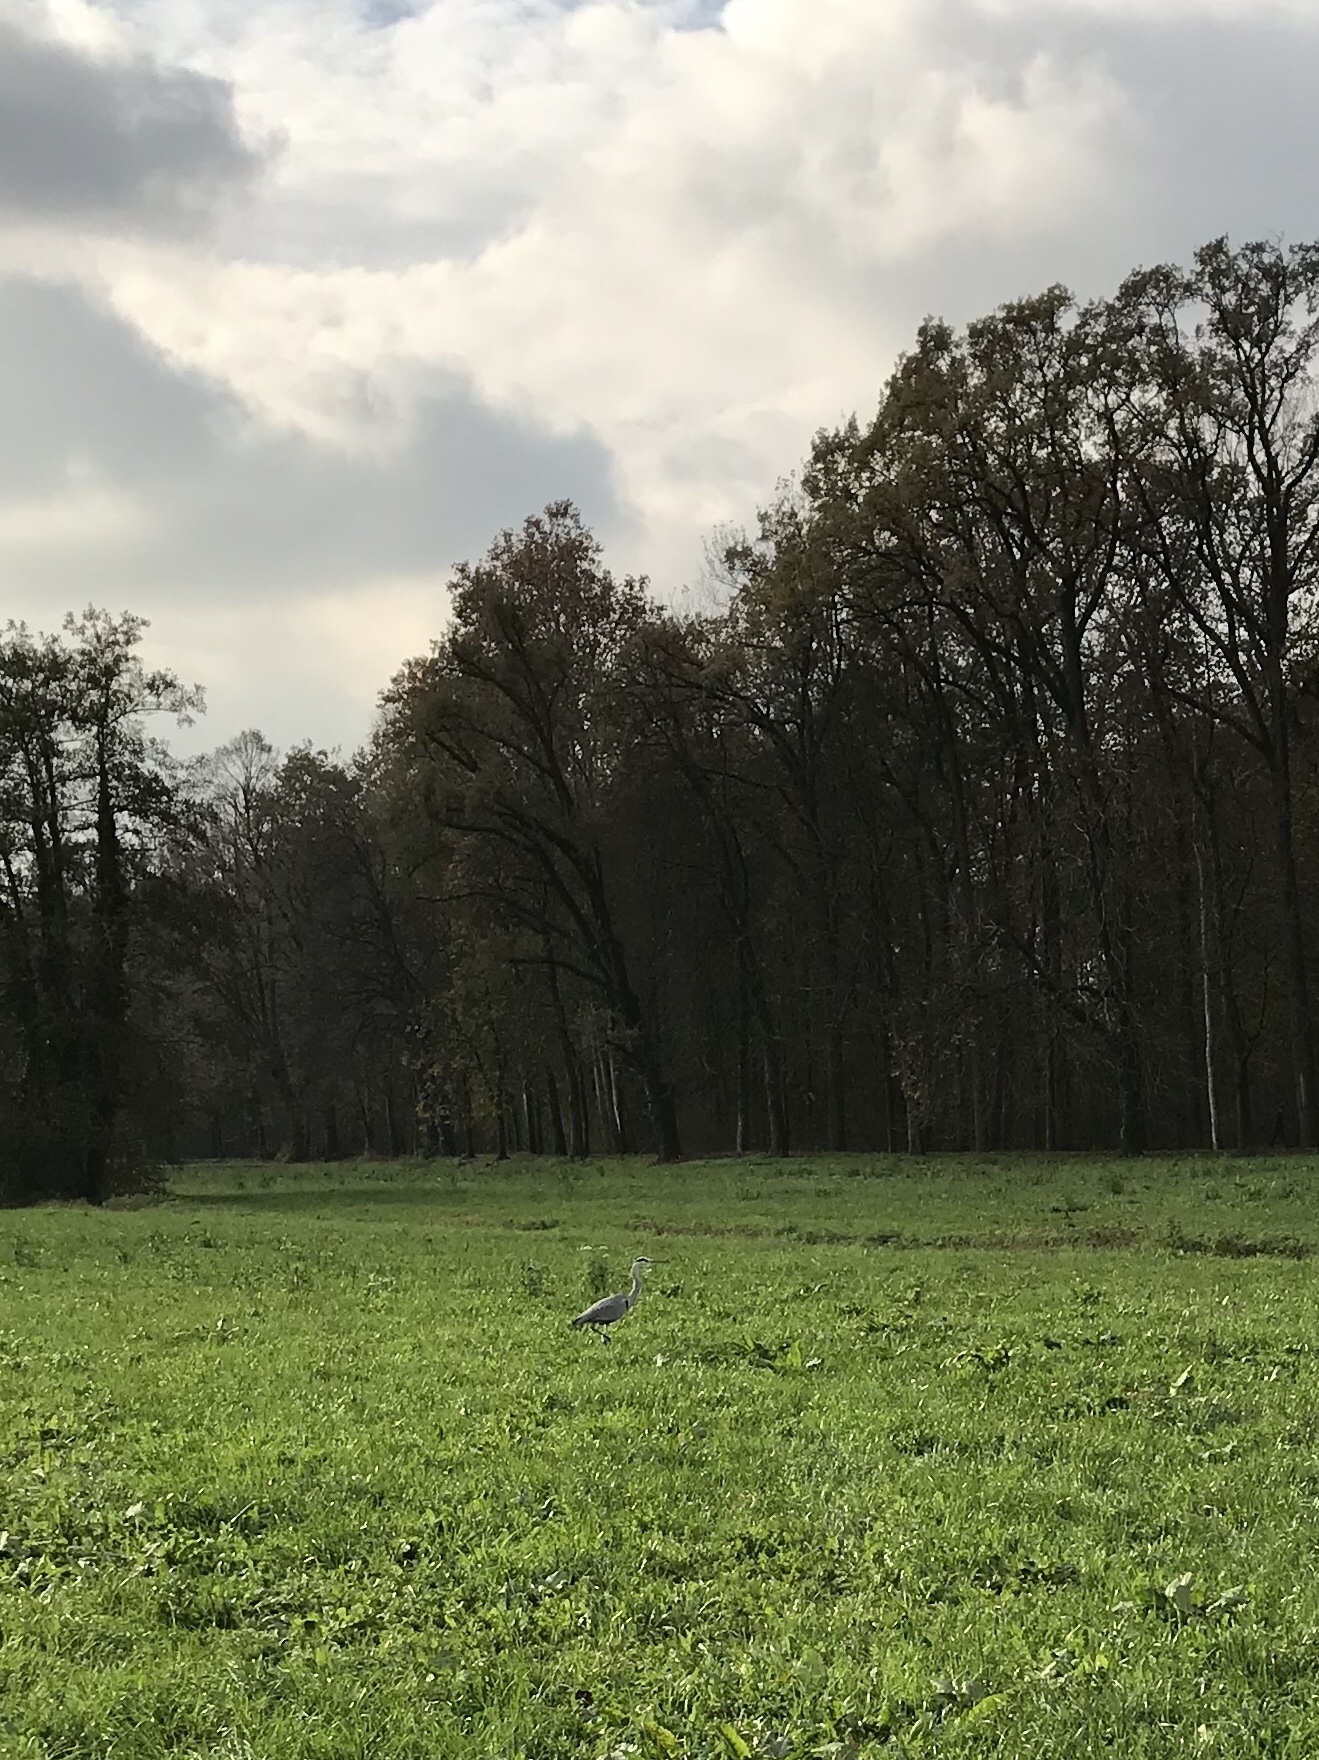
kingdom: Animalia
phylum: Chordata
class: Aves
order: Pelecaniformes
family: Ardeidae
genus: Ardea
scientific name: Ardea cinerea
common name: Grey heron
